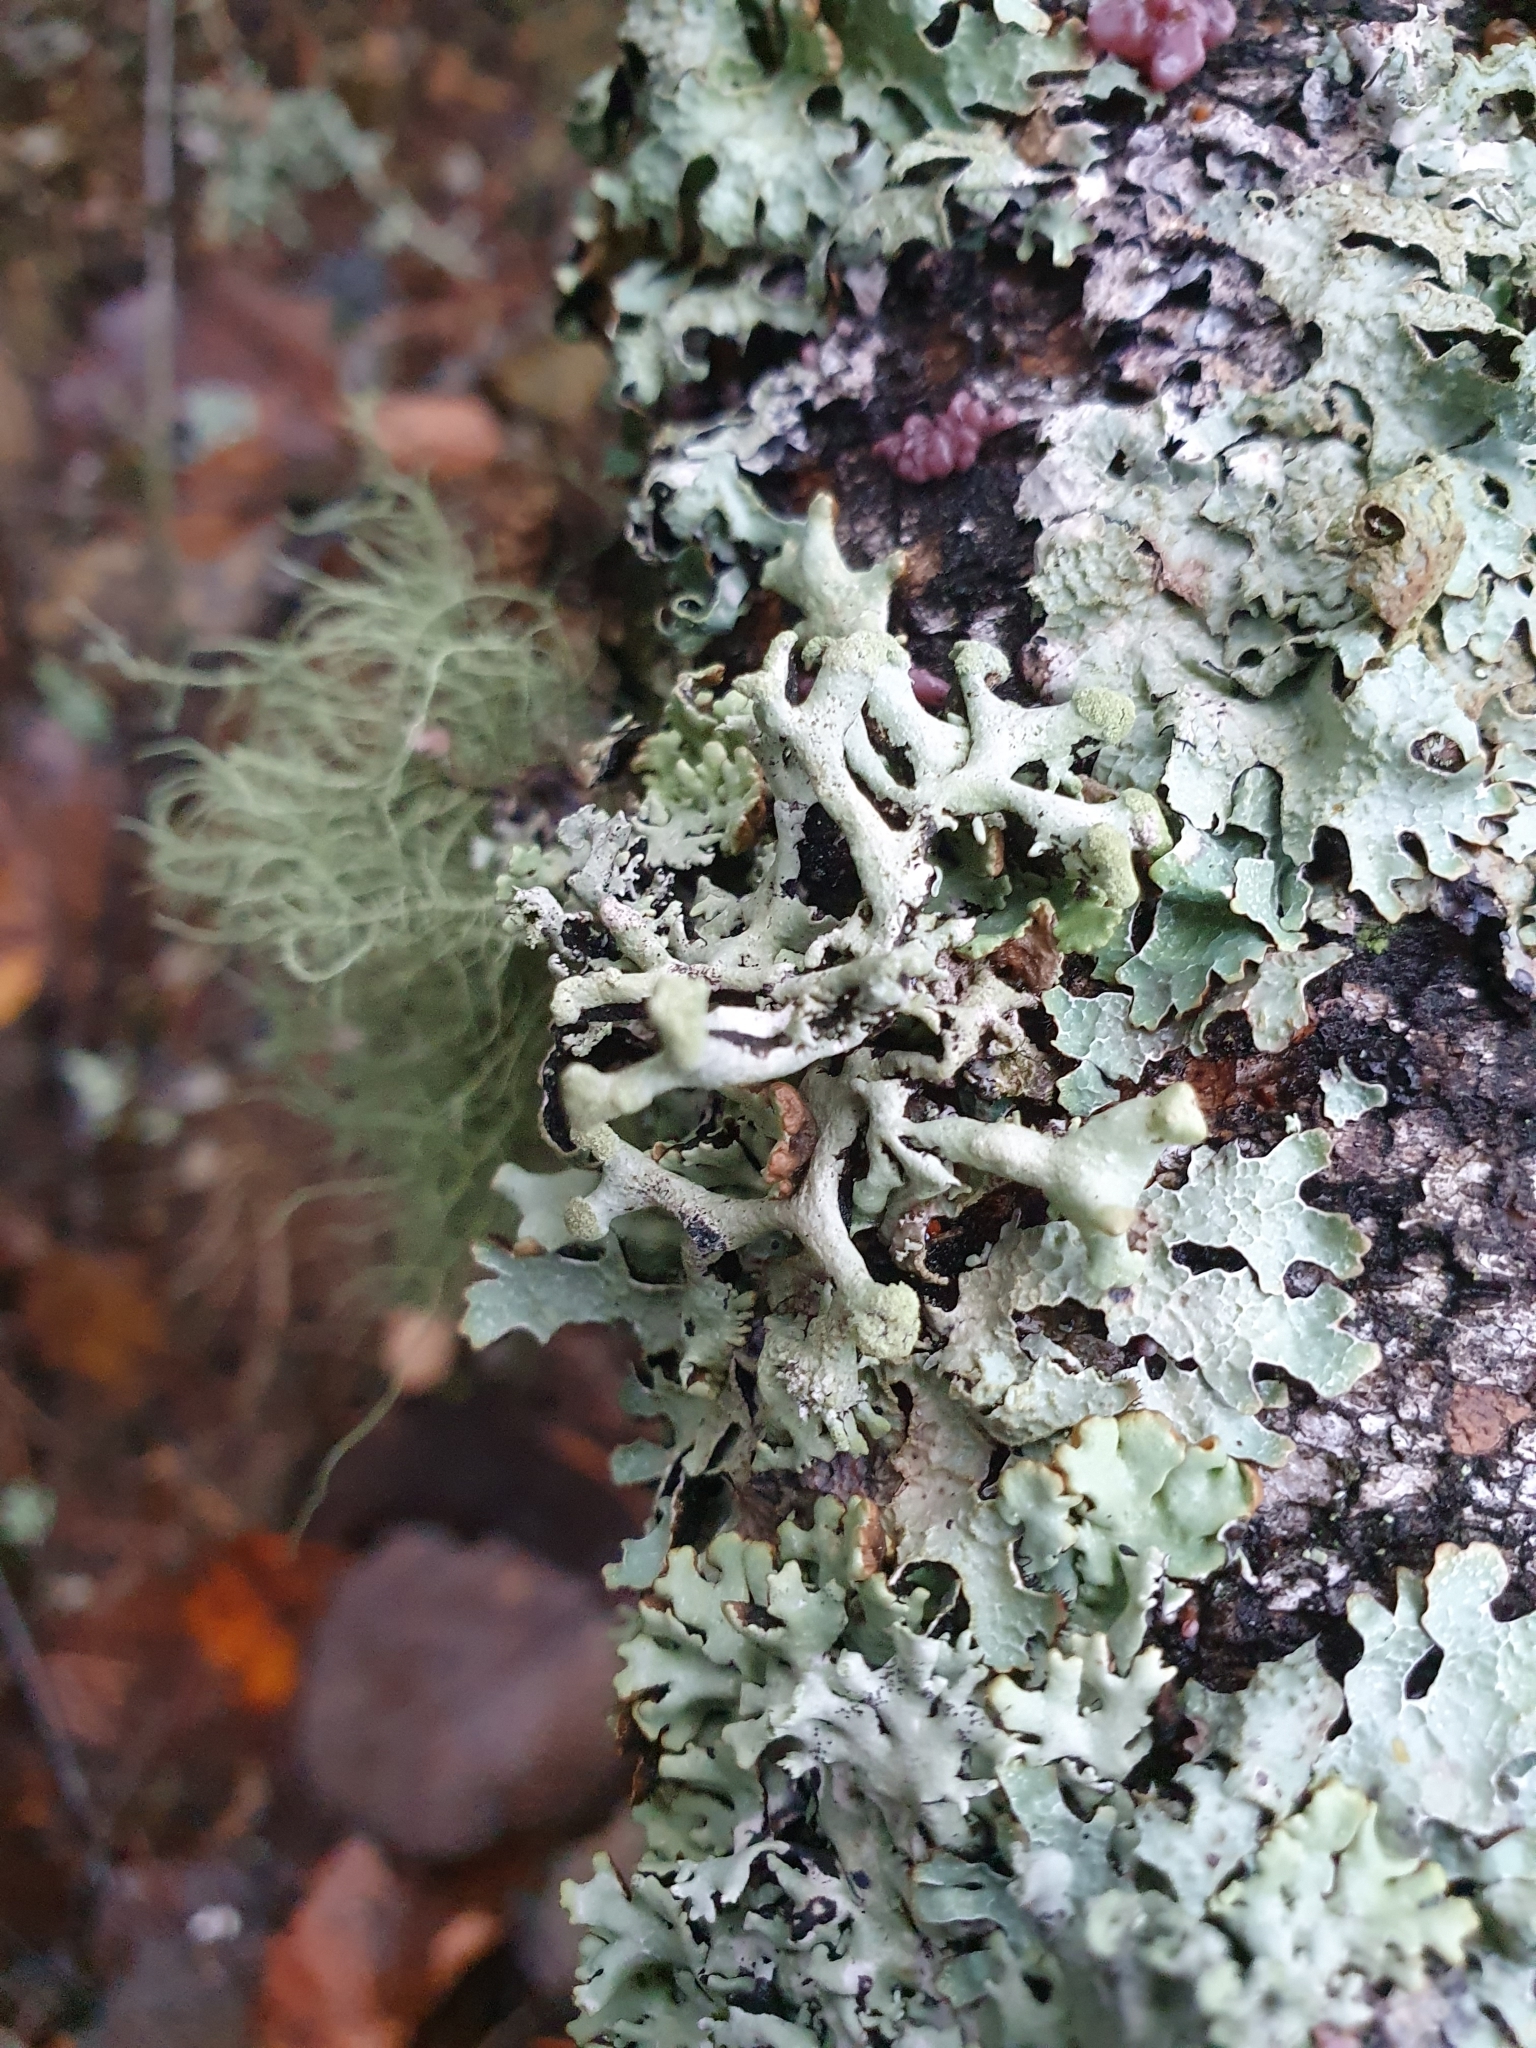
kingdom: Fungi
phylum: Ascomycota
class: Lecanoromycetes
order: Lecanorales
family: Parmeliaceae
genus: Hypogymnia
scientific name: Hypogymnia tubulosa
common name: Powder-headed tube lichen
